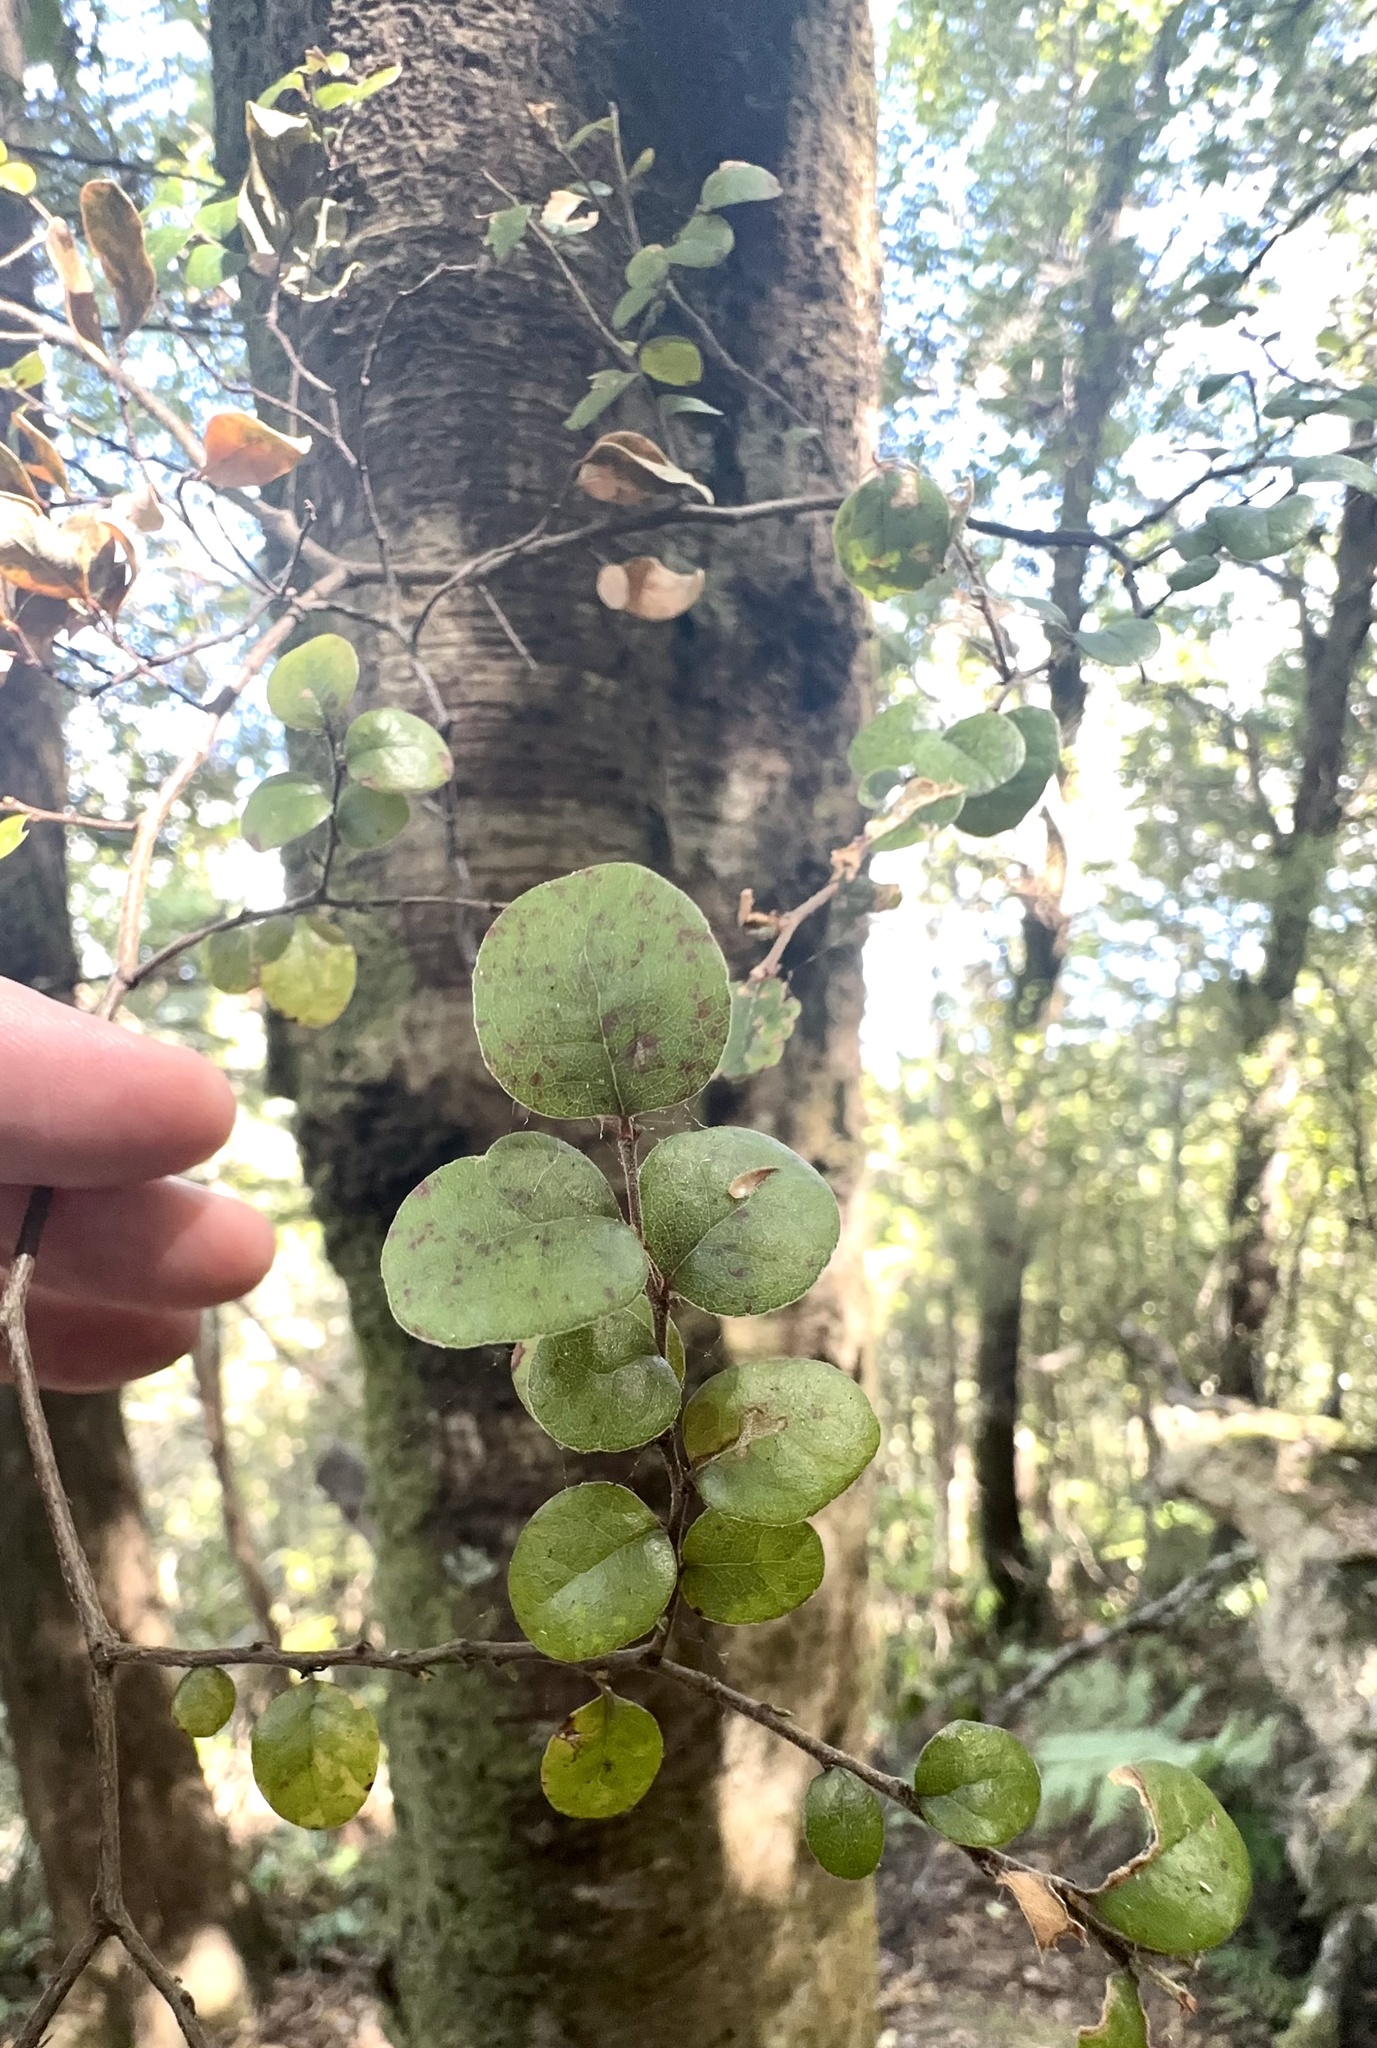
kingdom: Plantae
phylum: Tracheophyta
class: Magnoliopsida
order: Fagales
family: Nothofagaceae
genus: Nothofagus
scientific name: Nothofagus solandri
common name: Black beech
